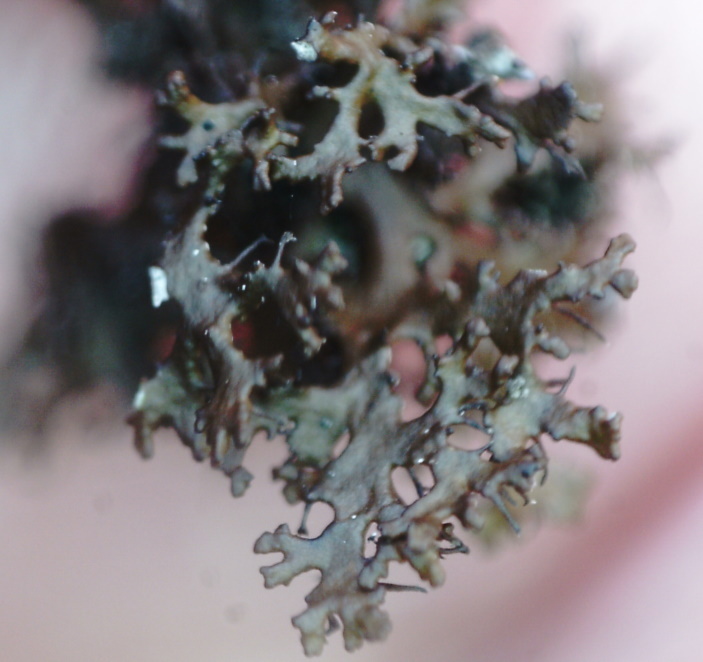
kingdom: Fungi
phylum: Ascomycota
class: Lecanoromycetes
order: Lecanorales
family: Parmeliaceae
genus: Cetraria
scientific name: Cetraria odontella
